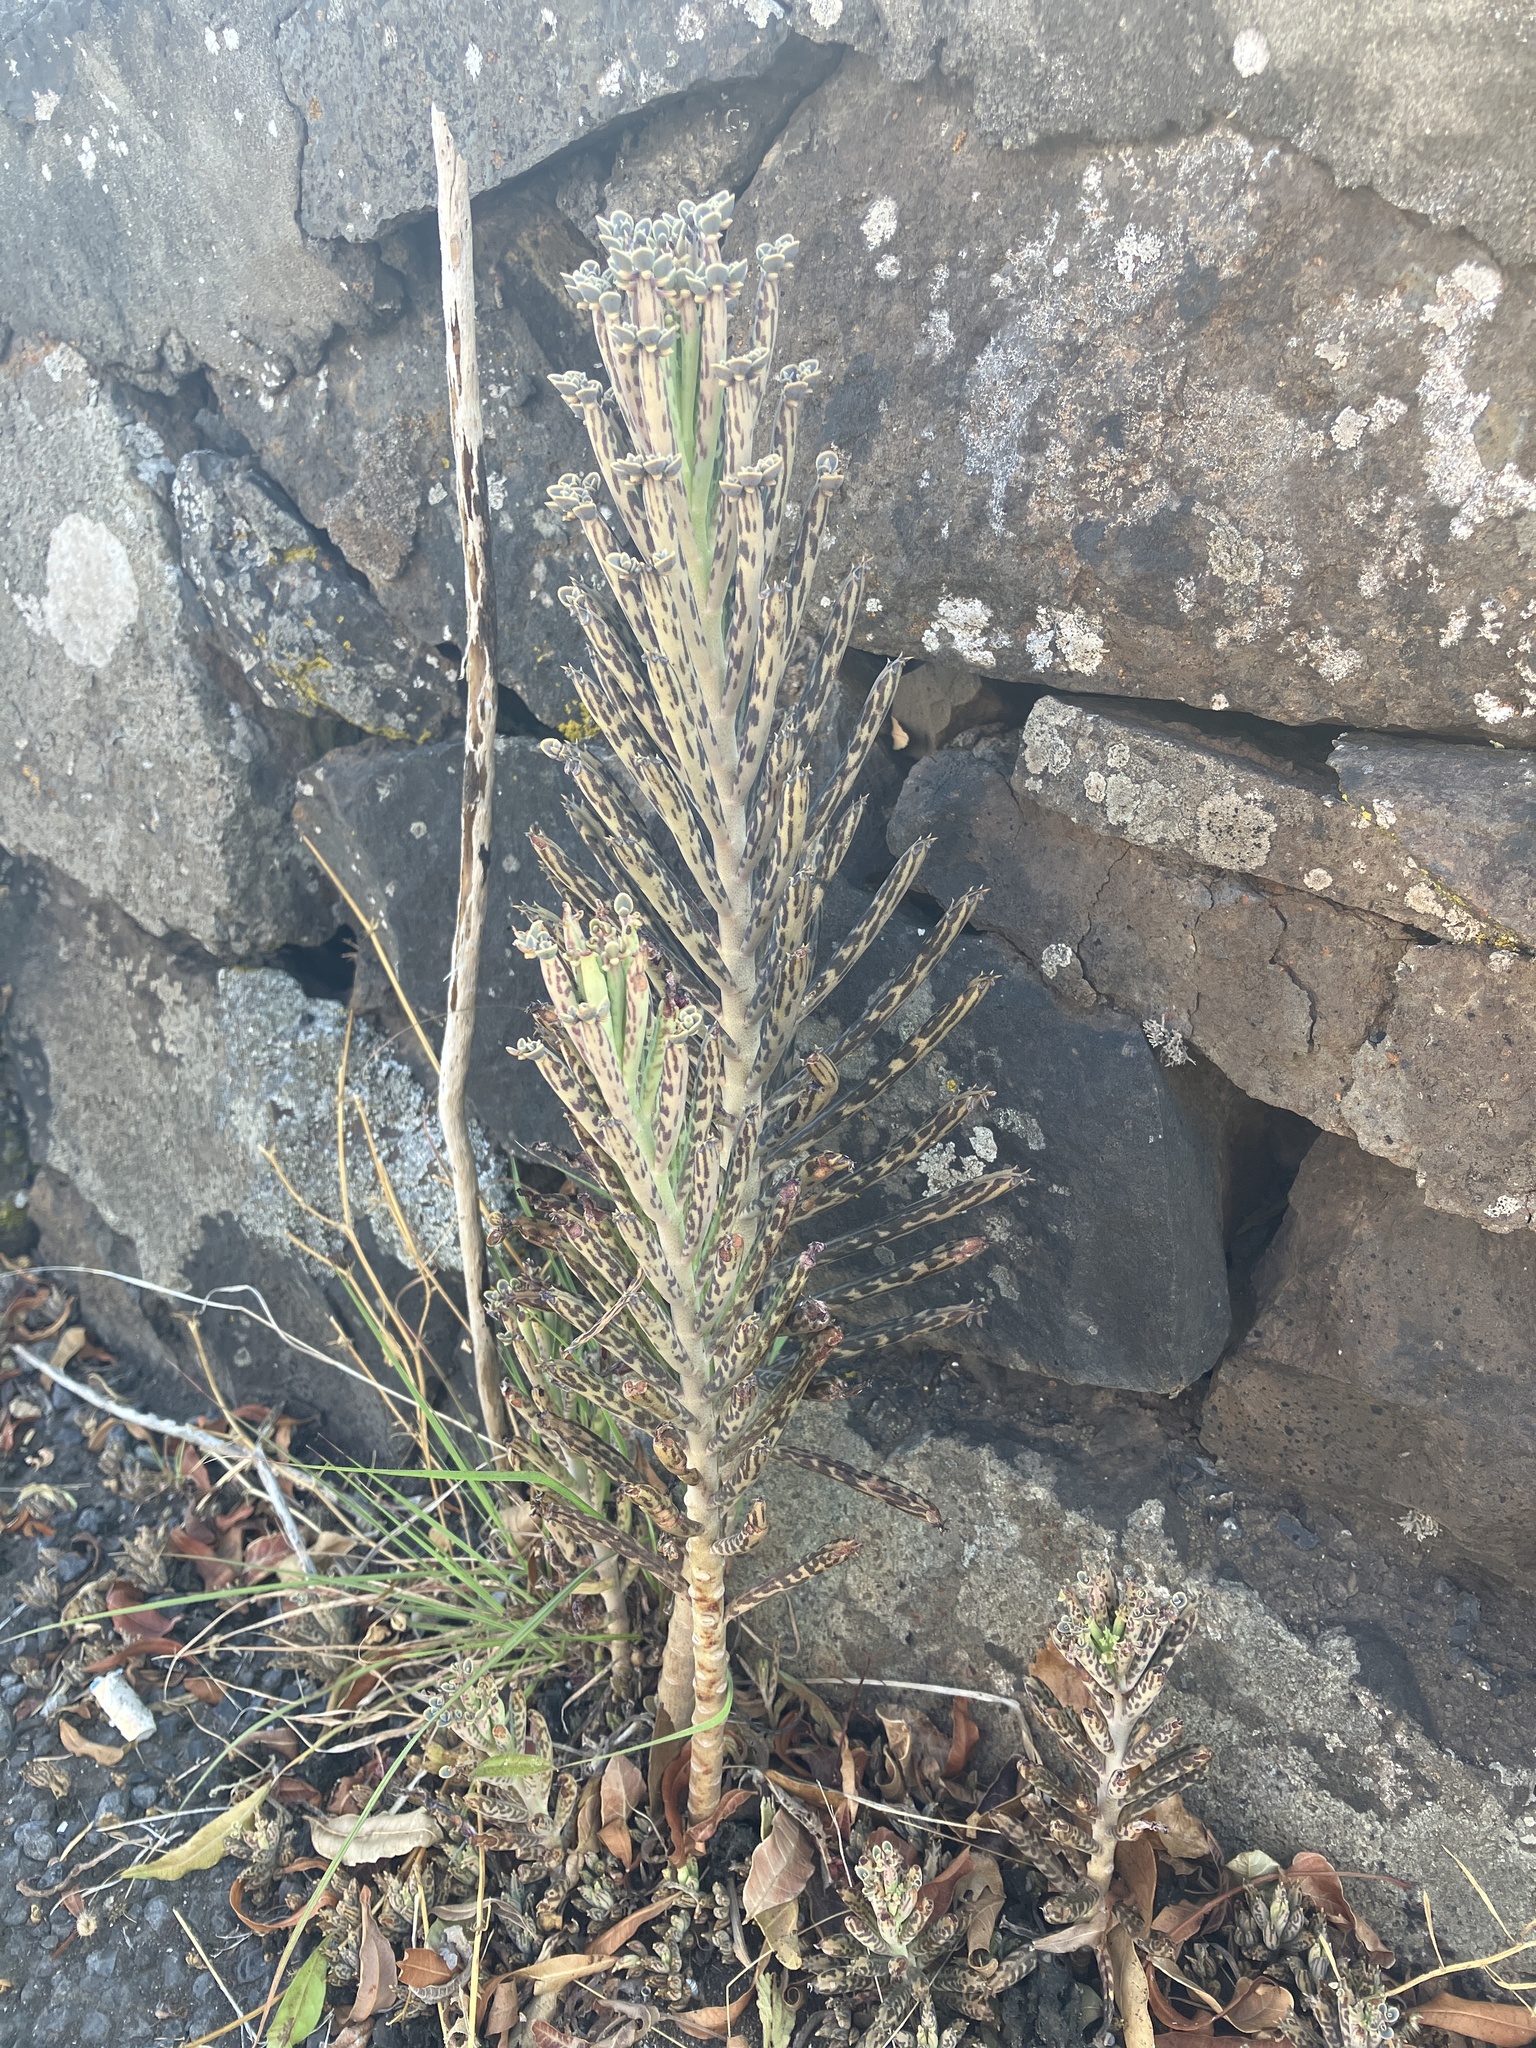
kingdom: Plantae
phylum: Tracheophyta
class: Magnoliopsida
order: Saxifragales
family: Crassulaceae
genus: Kalanchoe
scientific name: Kalanchoe delagoensis
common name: Chandelier plant
